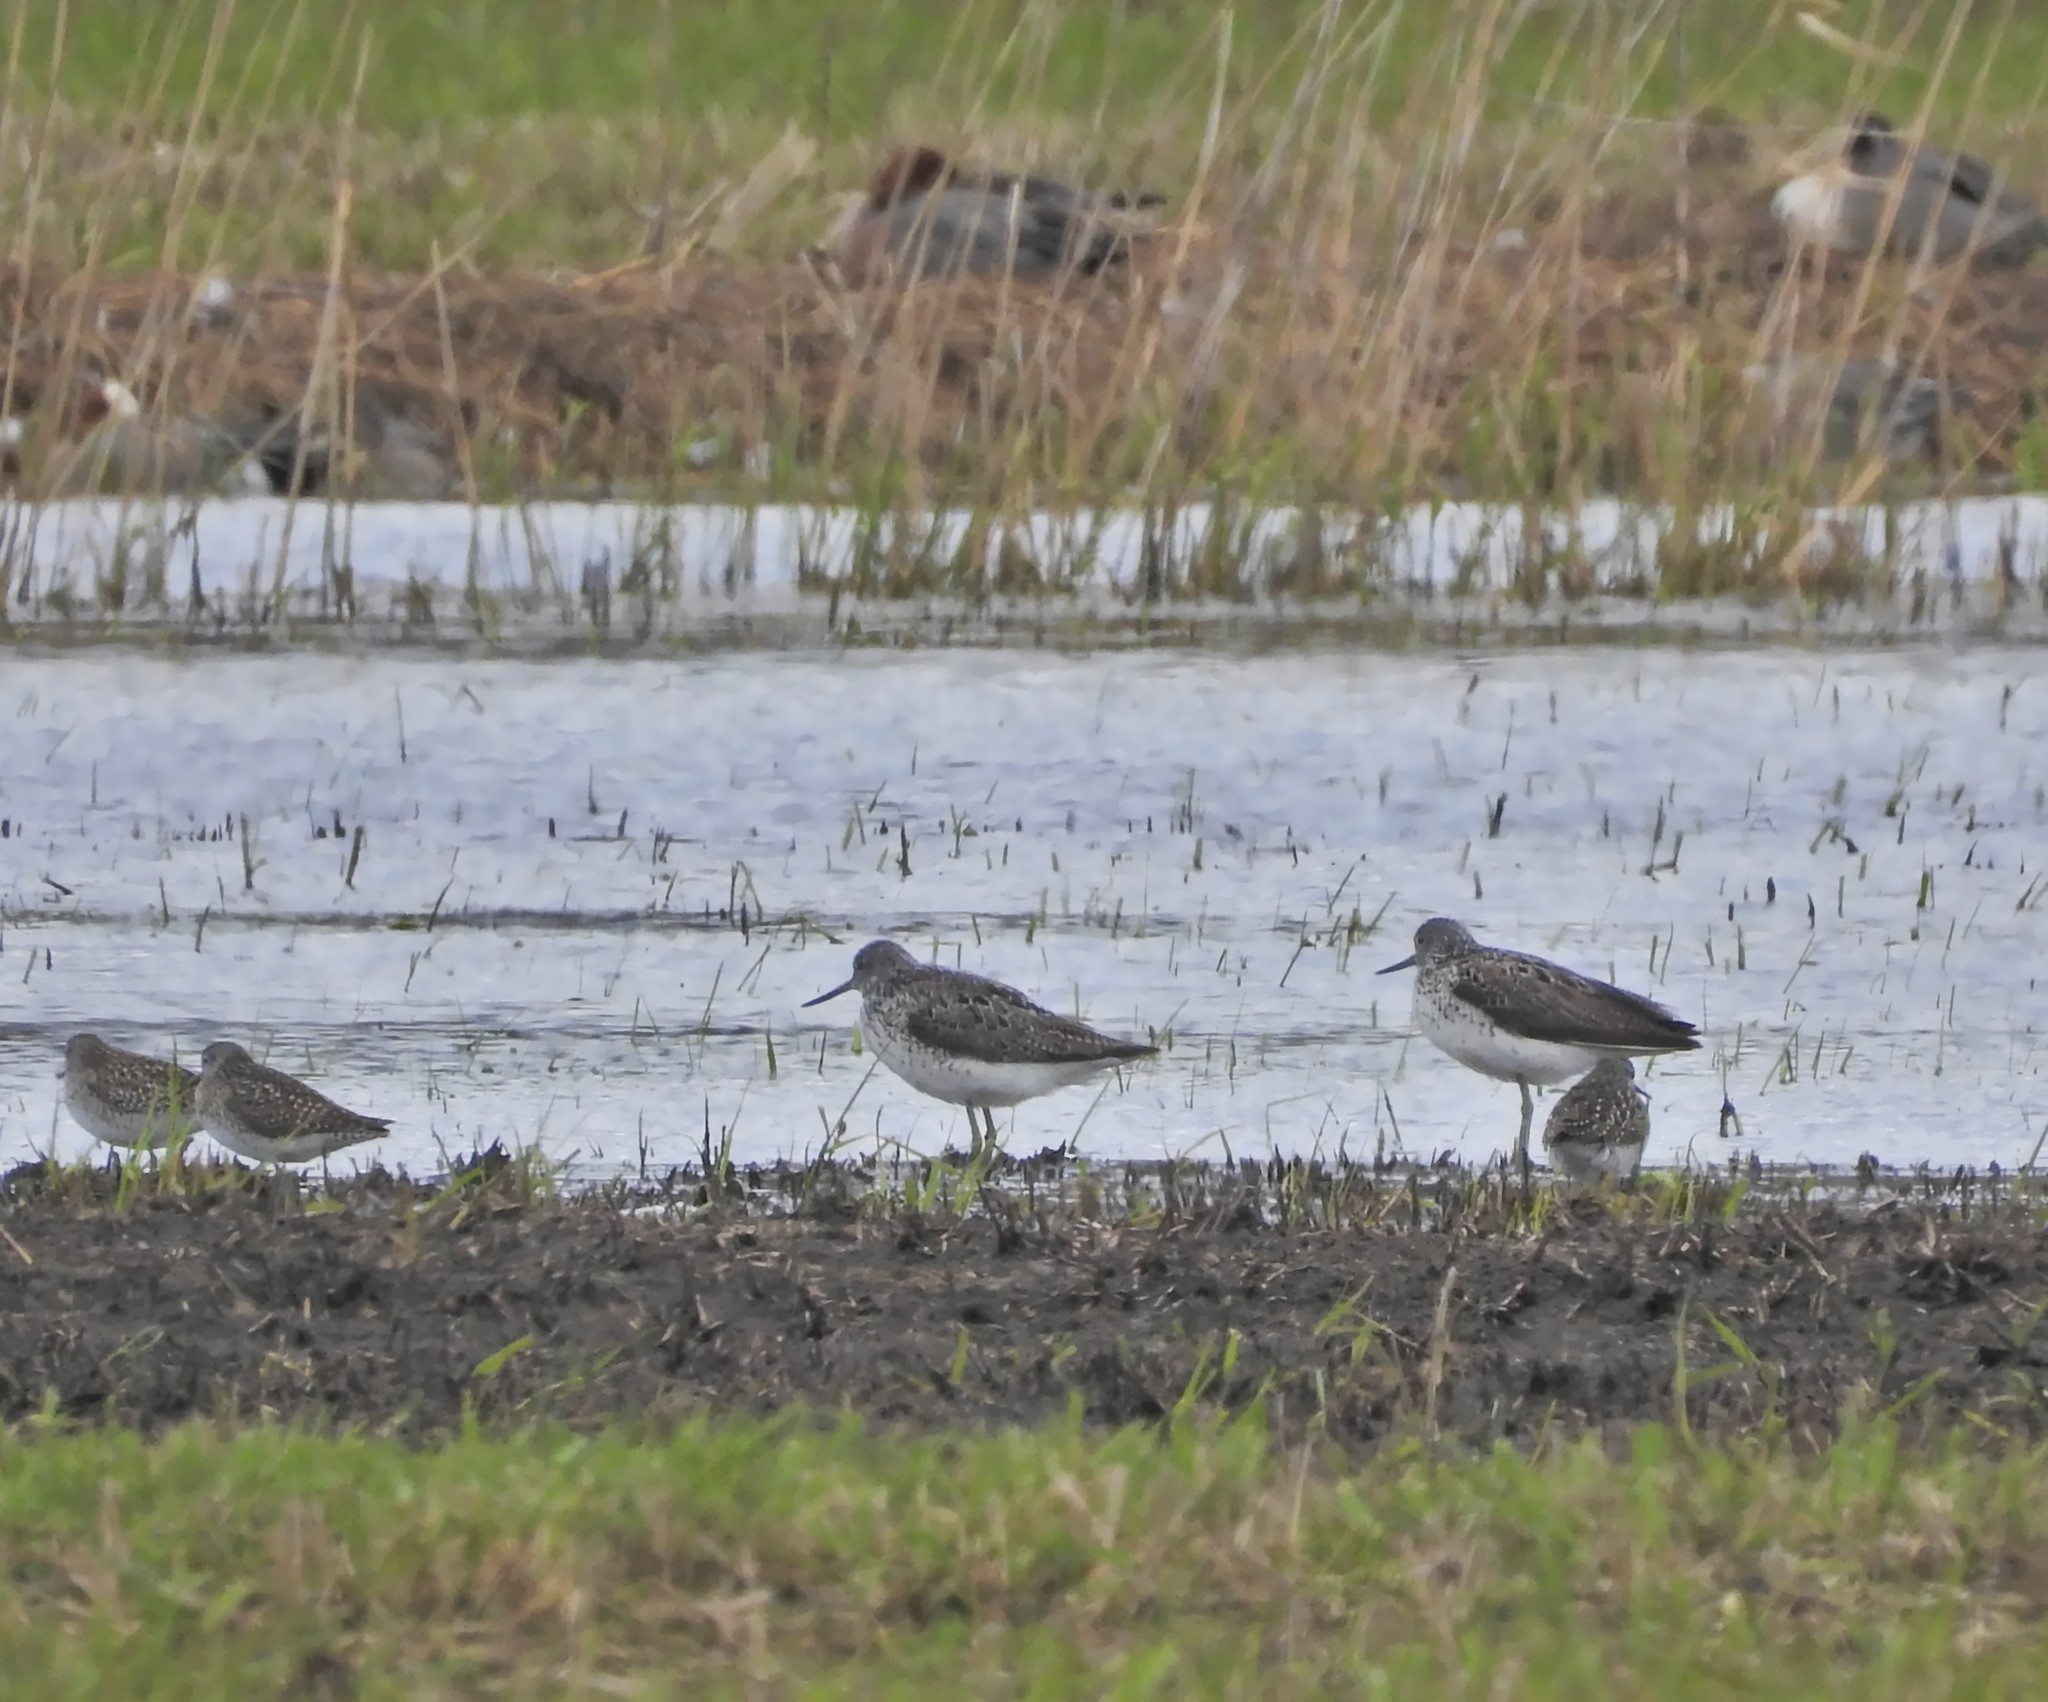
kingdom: Animalia
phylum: Chordata
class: Aves
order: Charadriiformes
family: Scolopacidae
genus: Tringa
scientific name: Tringa nebularia
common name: Common greenshank
